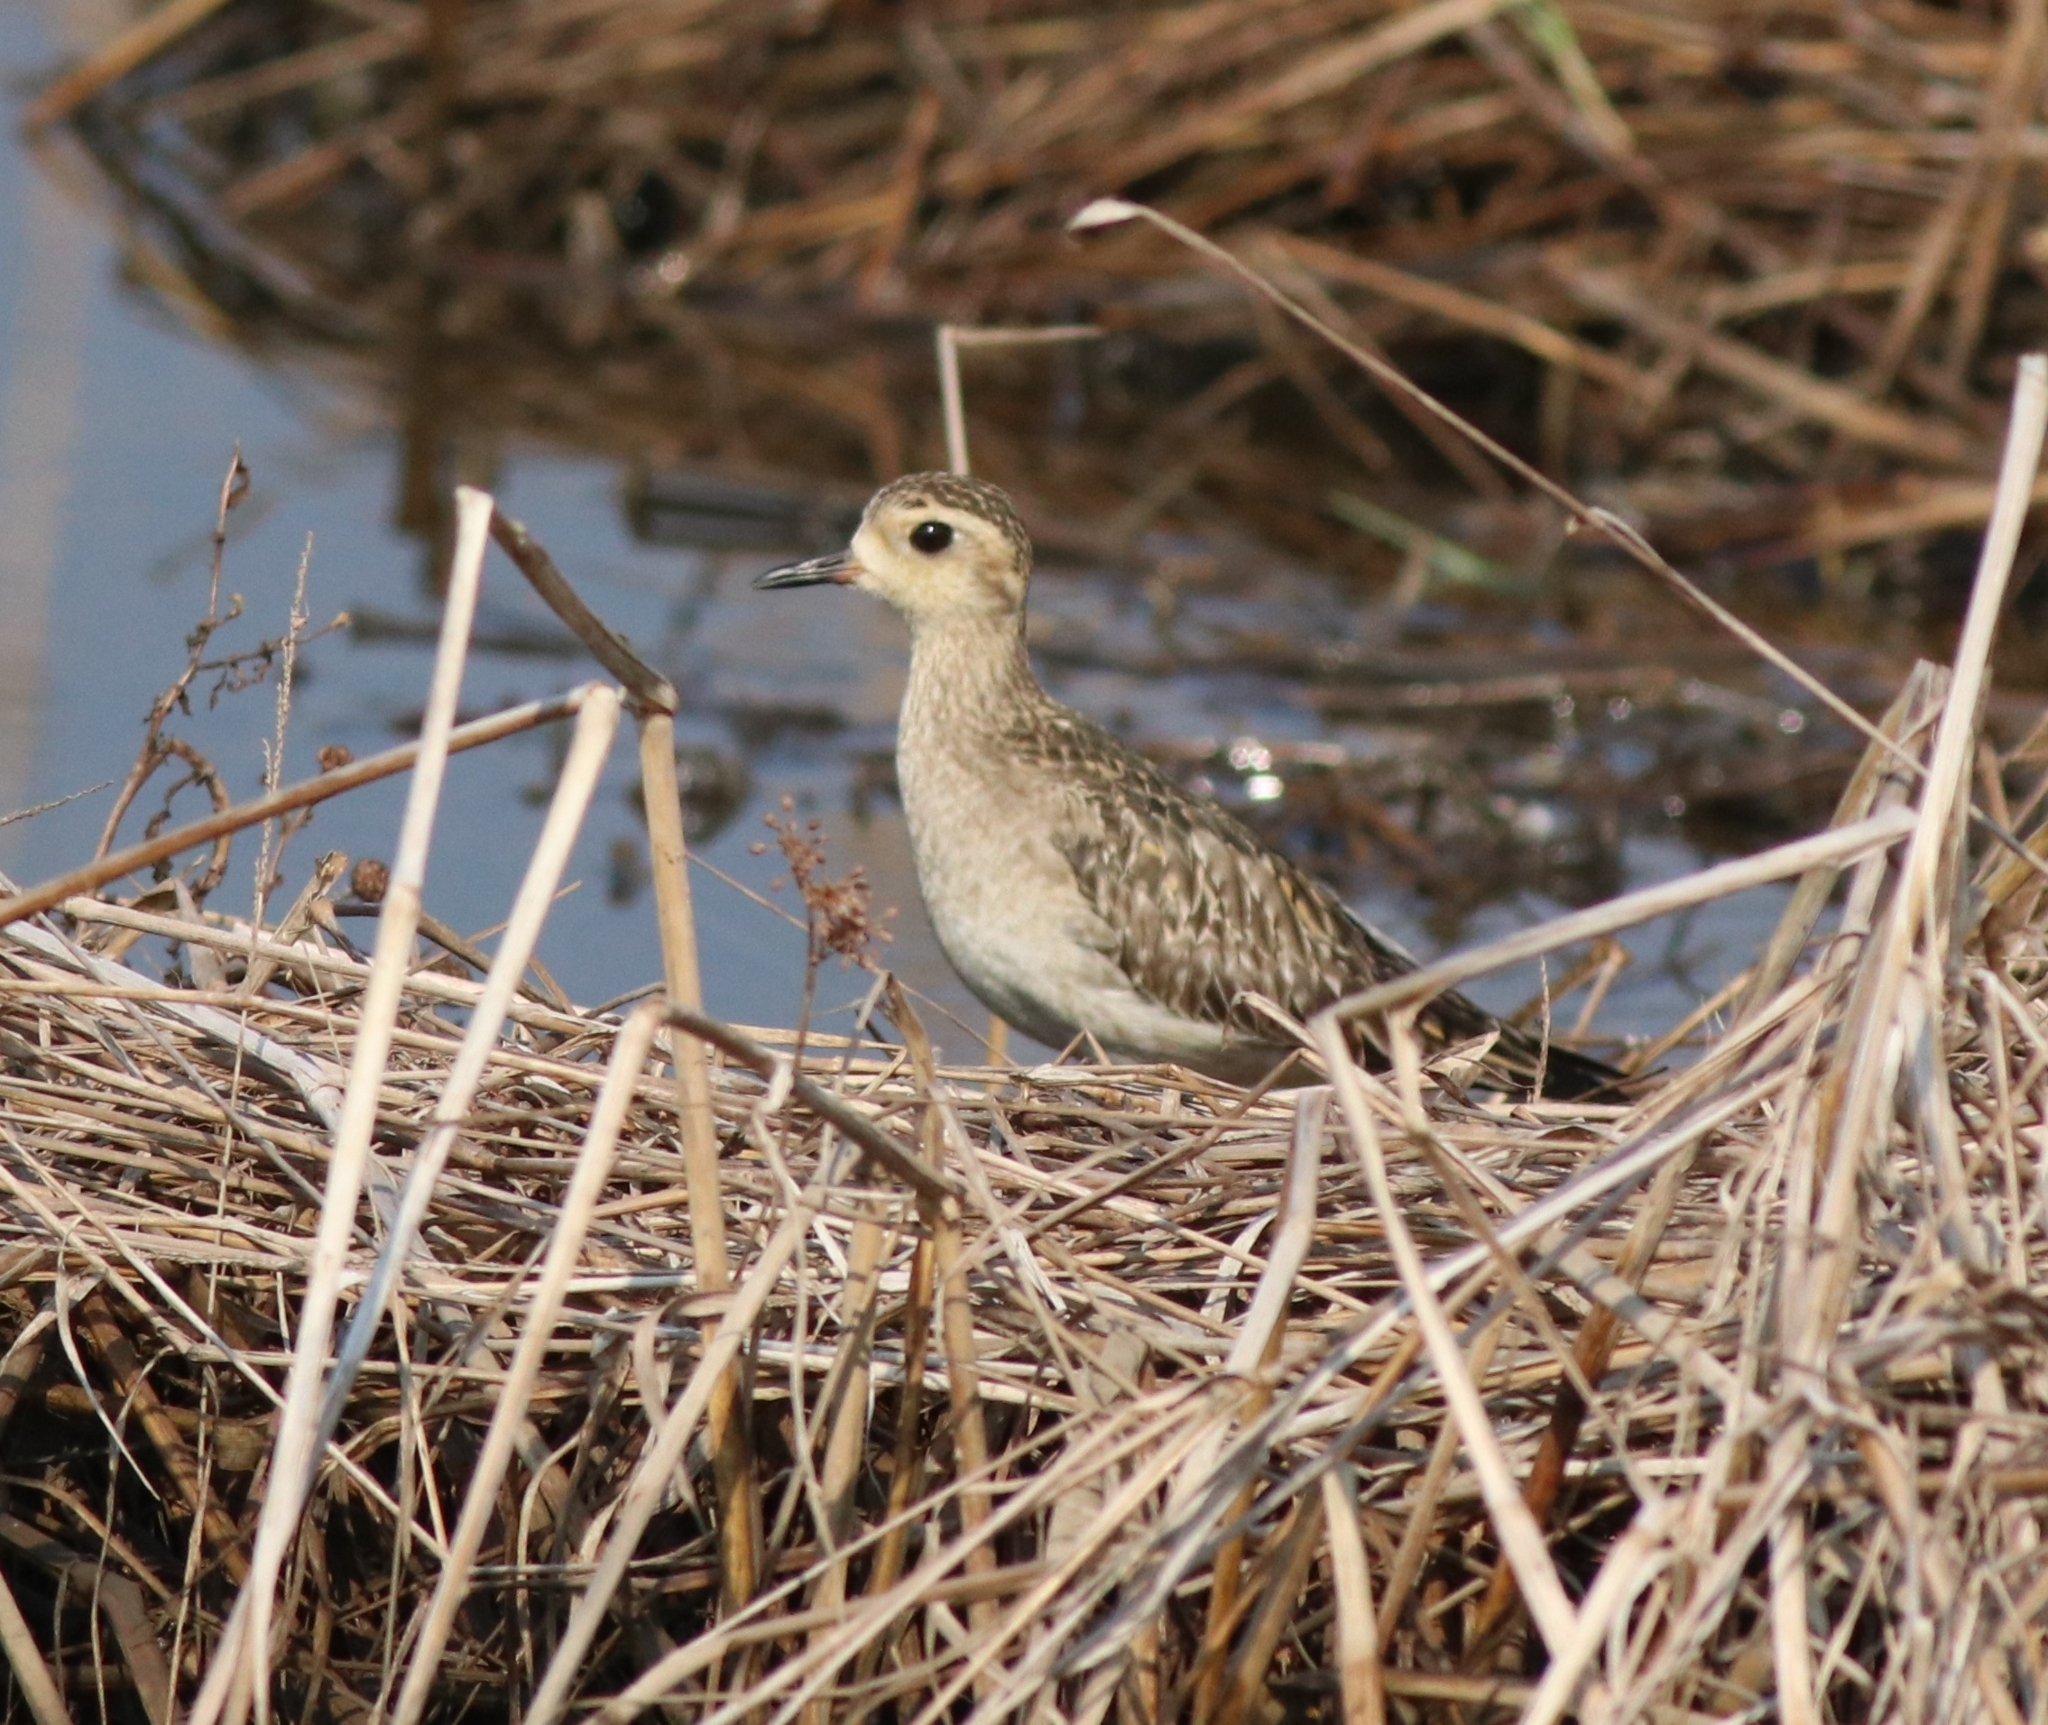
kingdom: Animalia
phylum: Chordata
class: Aves
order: Charadriiformes
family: Charadriidae
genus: Pluvialis
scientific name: Pluvialis fulva
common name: Pacific golden plover
